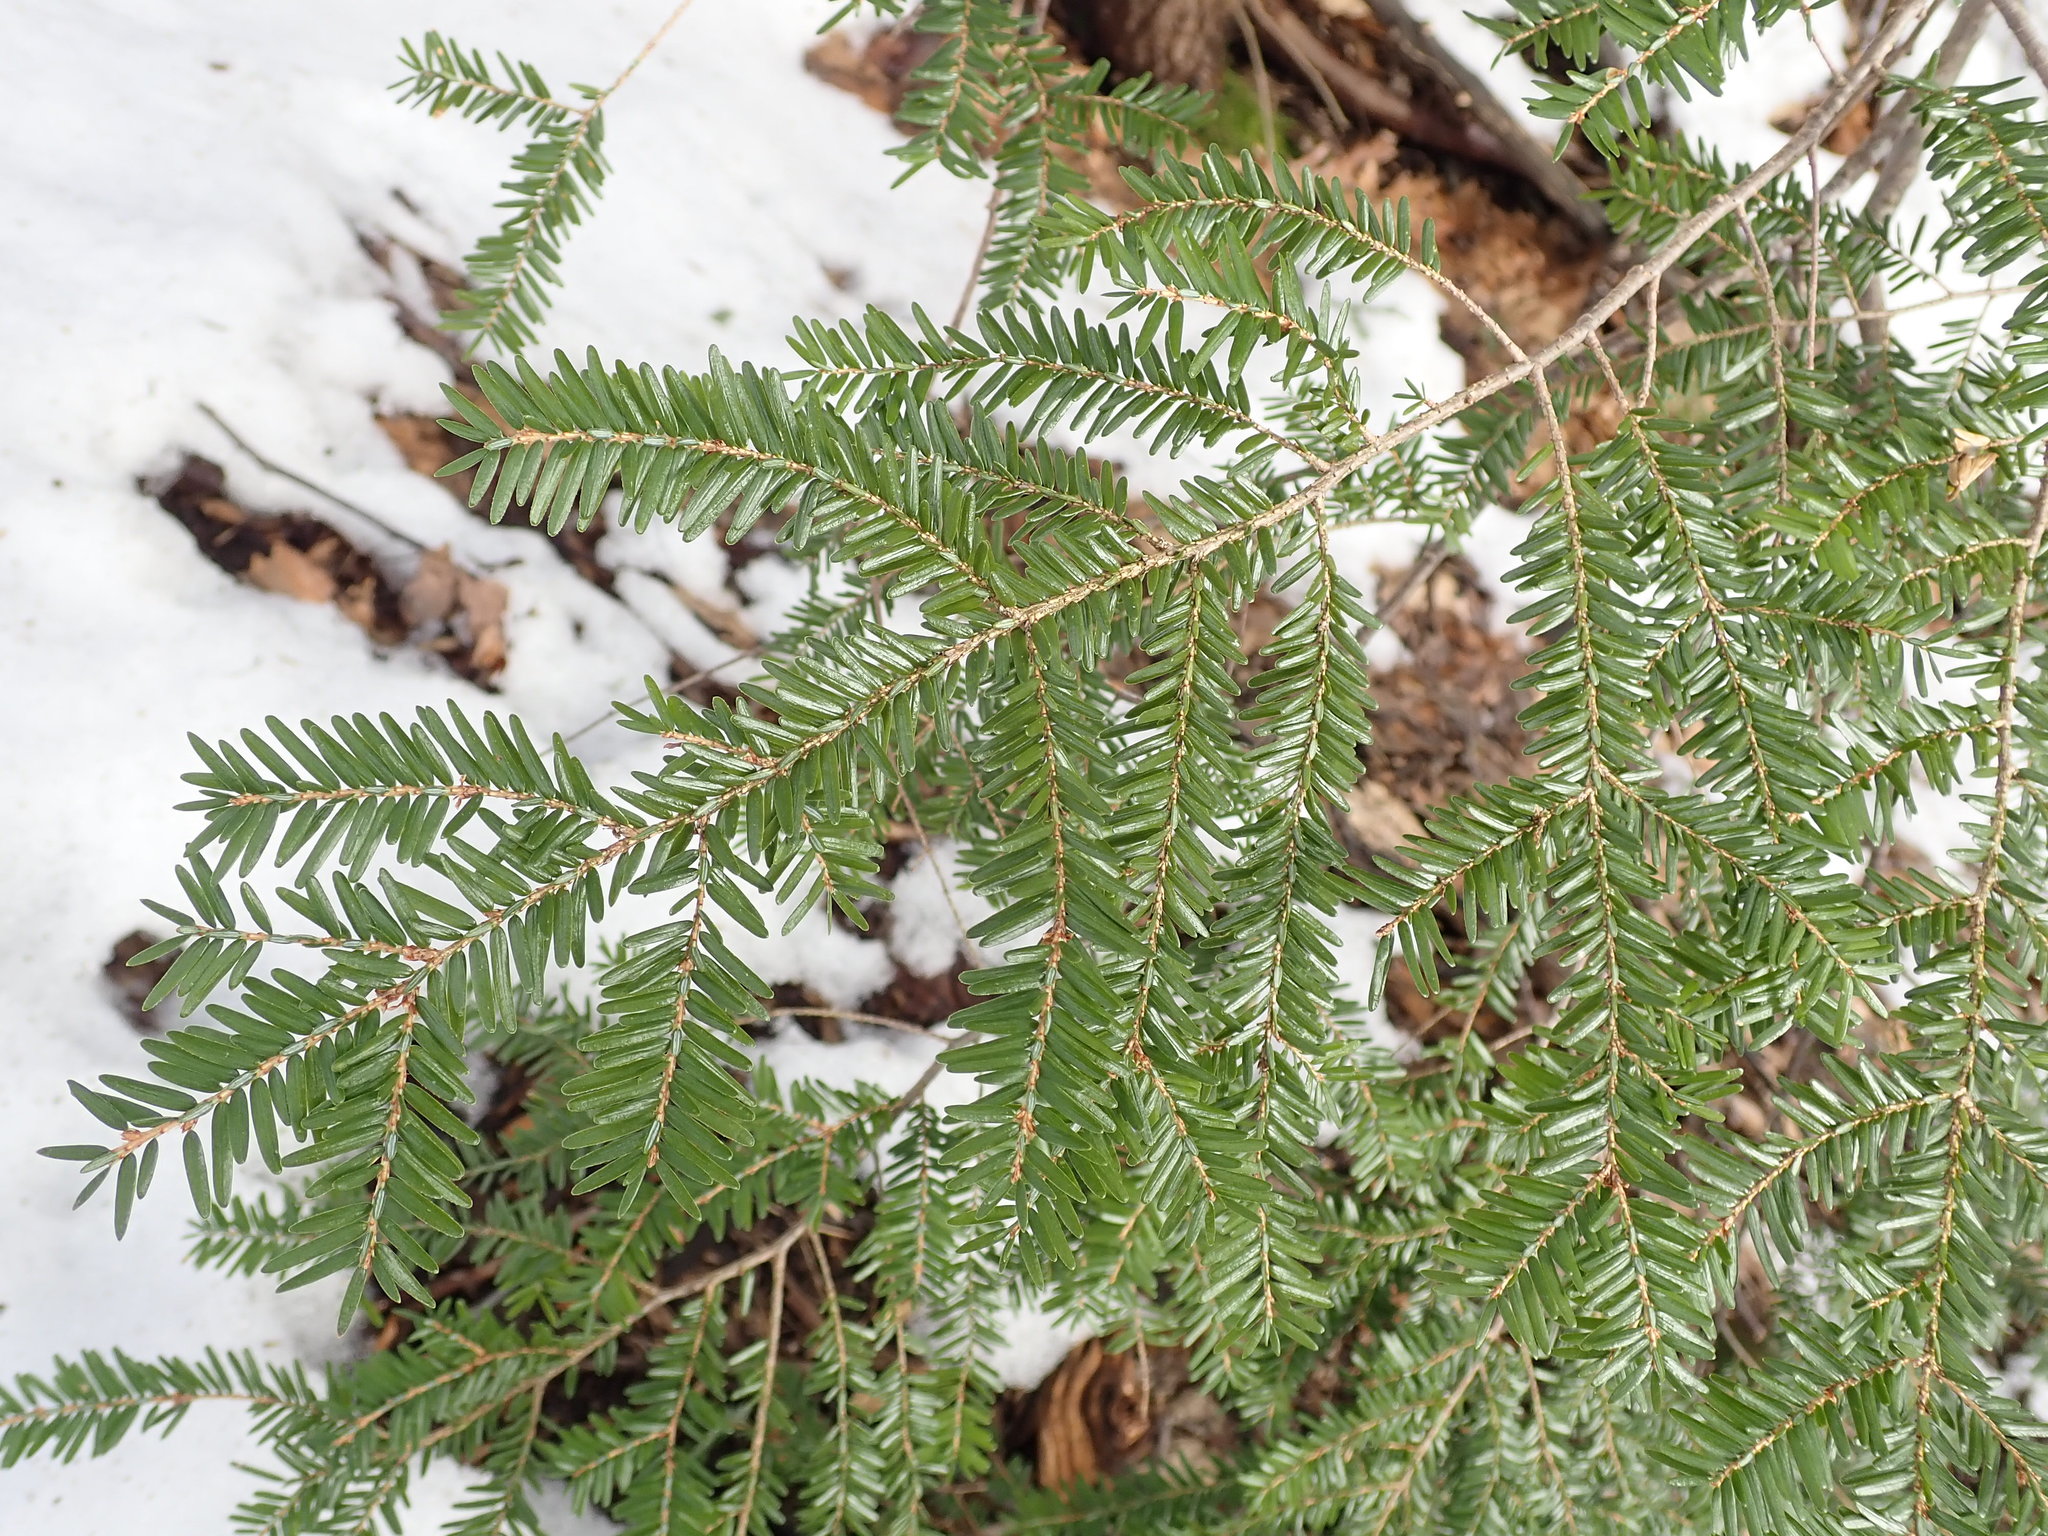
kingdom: Plantae
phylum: Tracheophyta
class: Pinopsida
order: Pinales
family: Pinaceae
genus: Tsuga
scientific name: Tsuga canadensis
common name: Eastern hemlock
